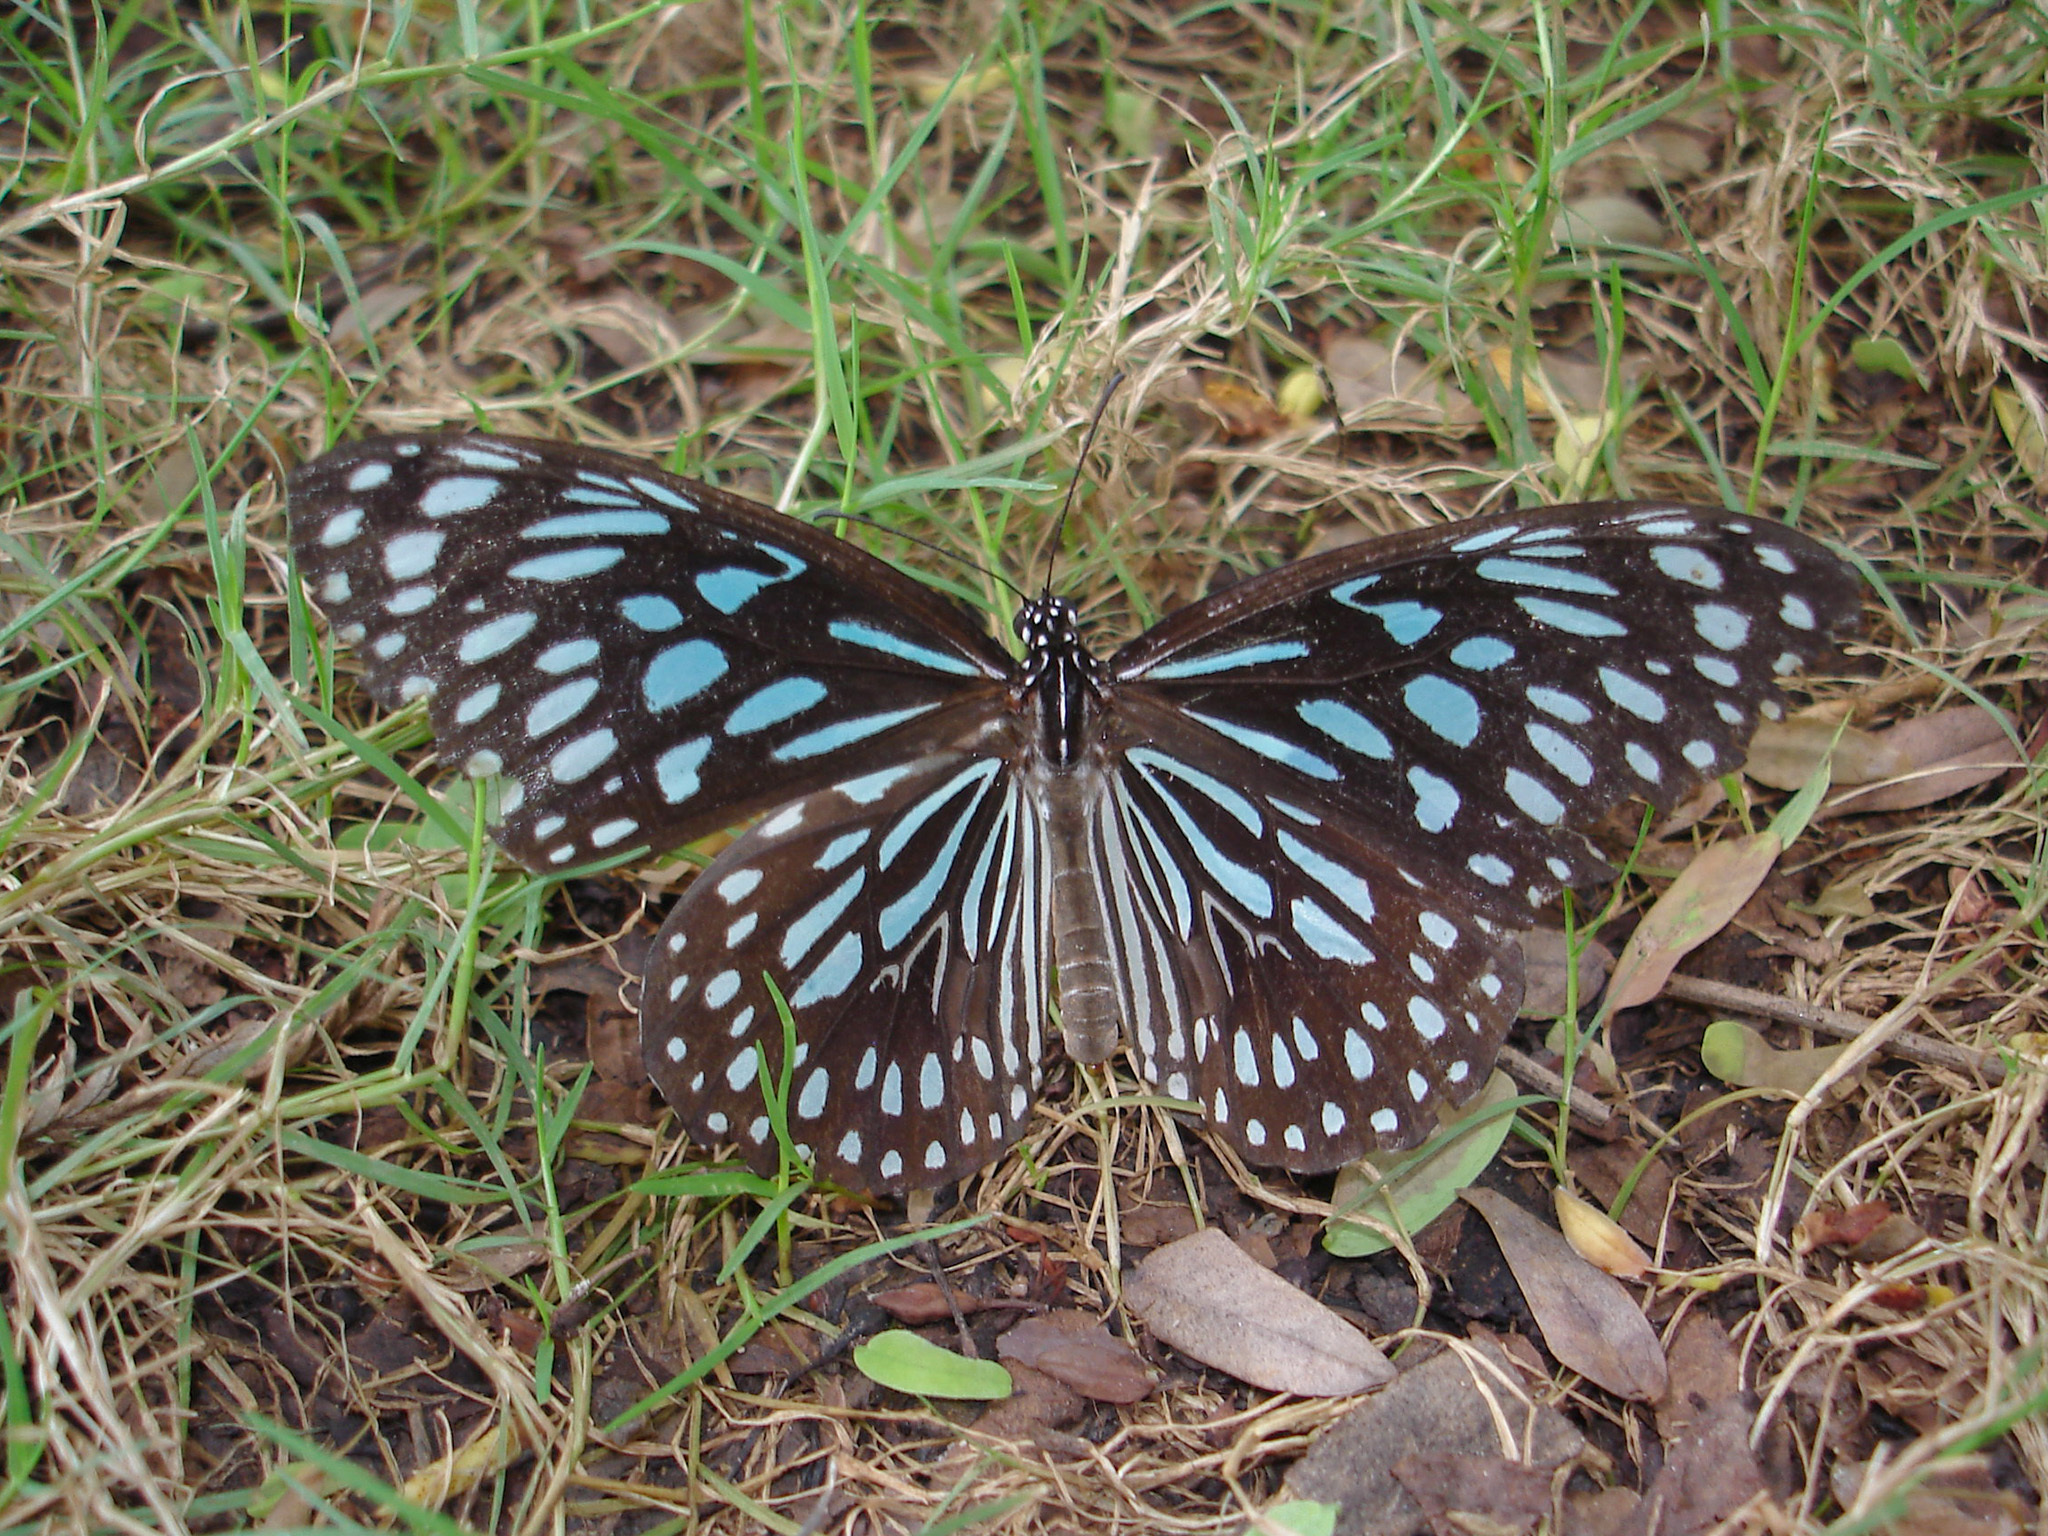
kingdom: Animalia
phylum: Arthropoda
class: Insecta
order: Lepidoptera
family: Nymphalidae
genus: Tirumala
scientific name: Tirumala septentrionis
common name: Dark blue tiger butterfly
